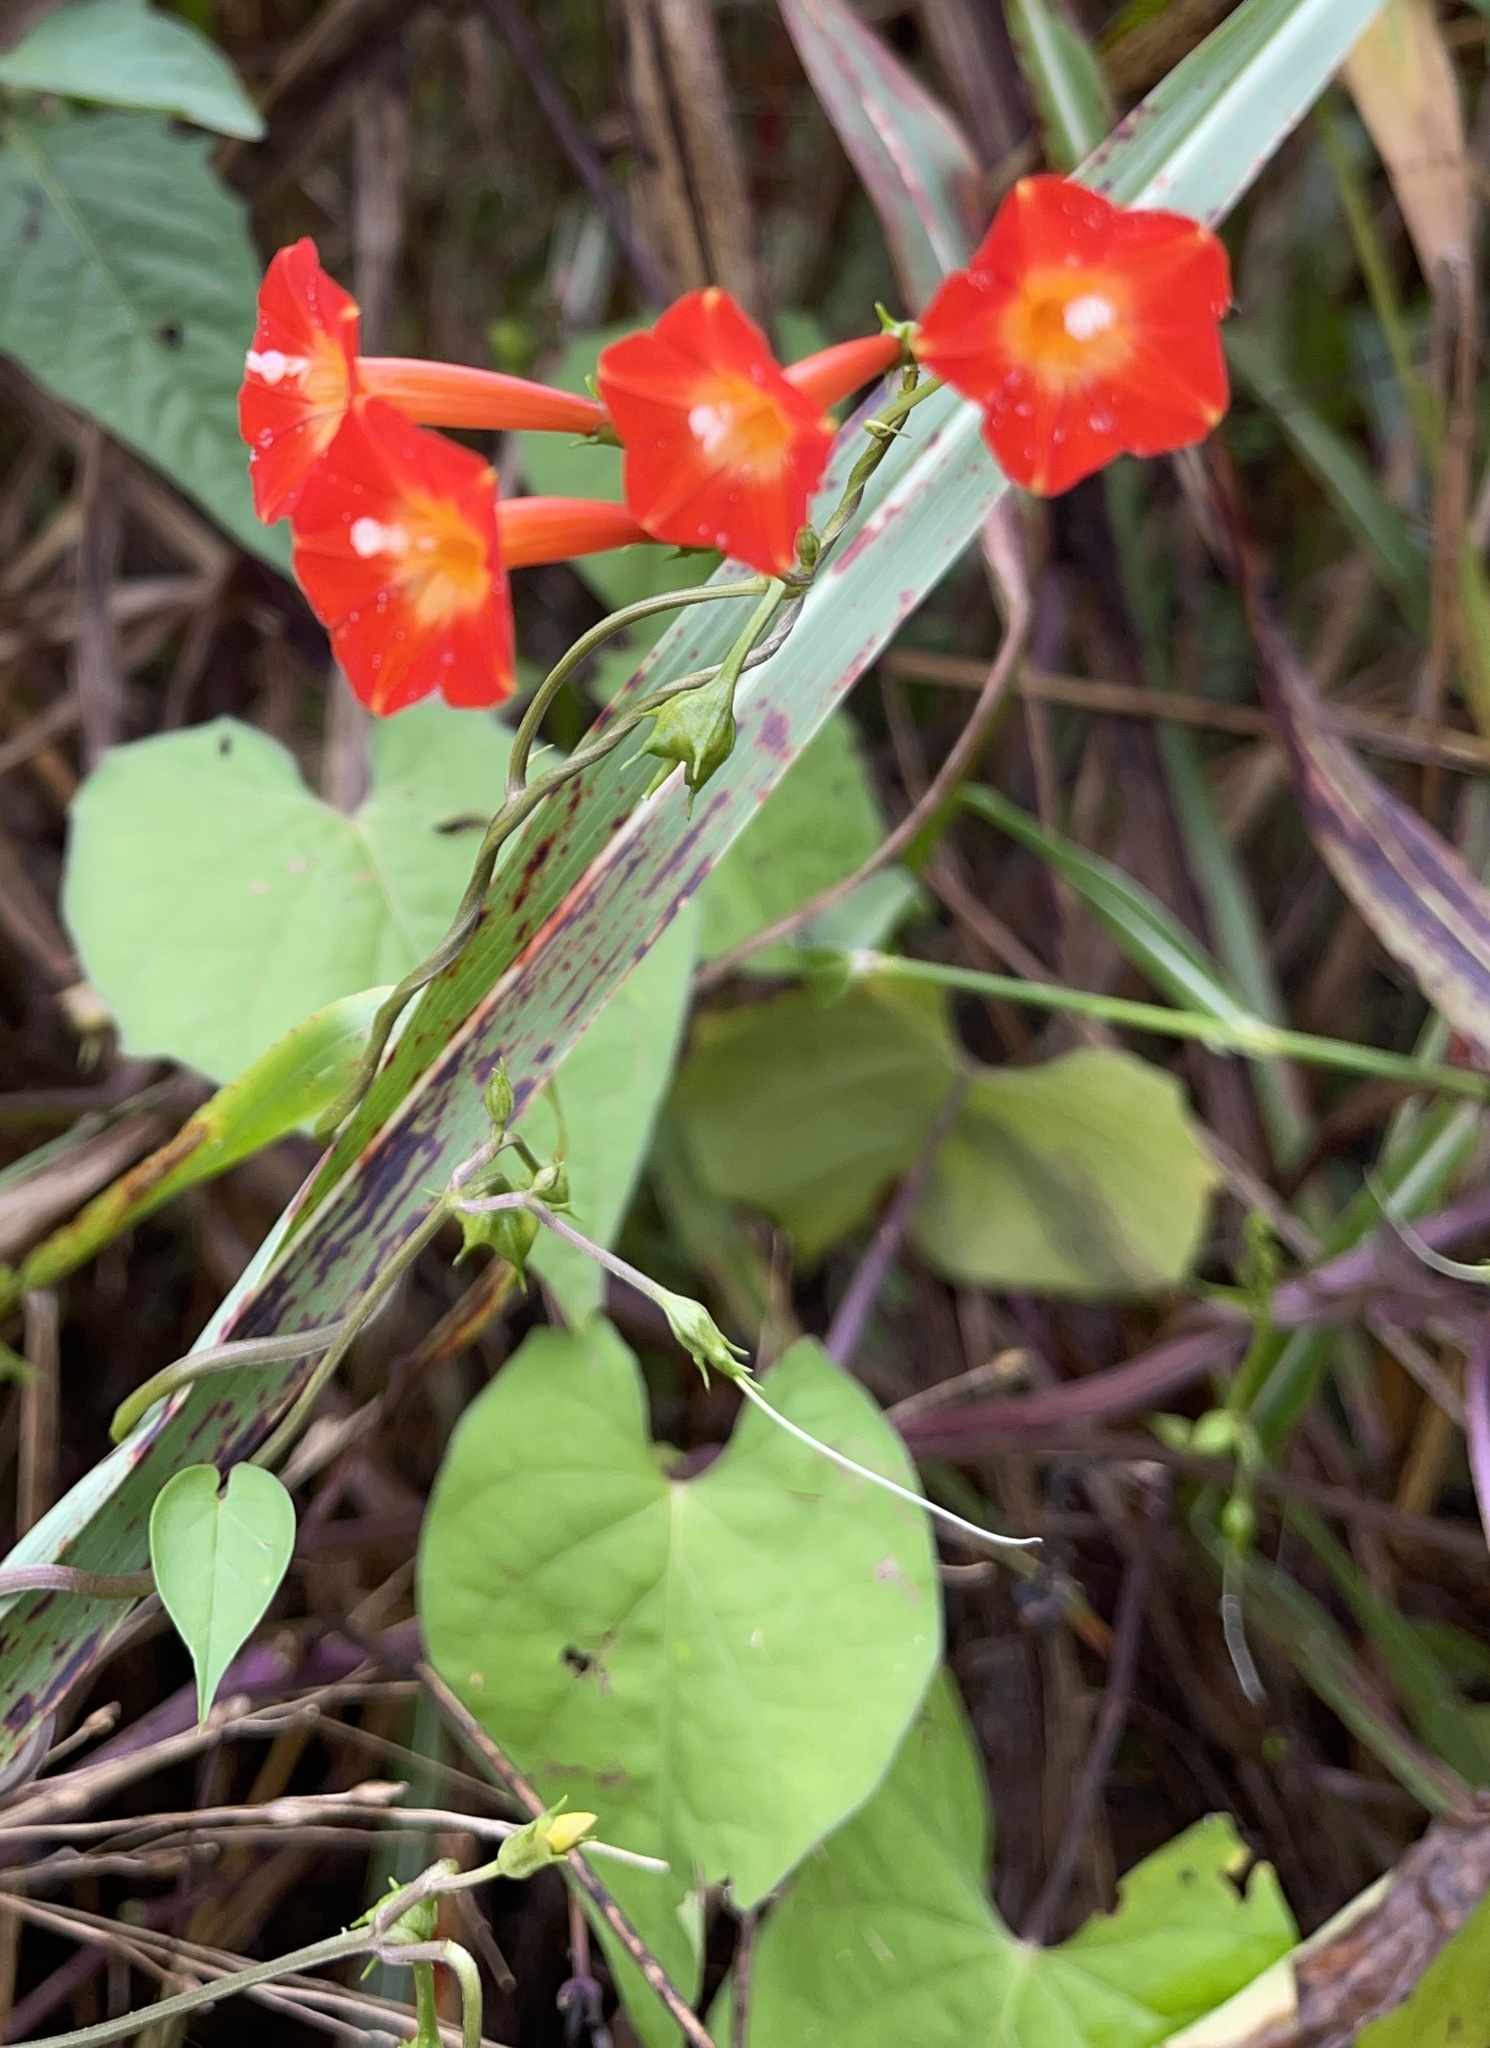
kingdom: Plantae
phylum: Tracheophyta
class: Magnoliopsida
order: Solanales
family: Convolvulaceae
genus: Ipomoea
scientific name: Ipomoea coccinea
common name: Red morning-glory
